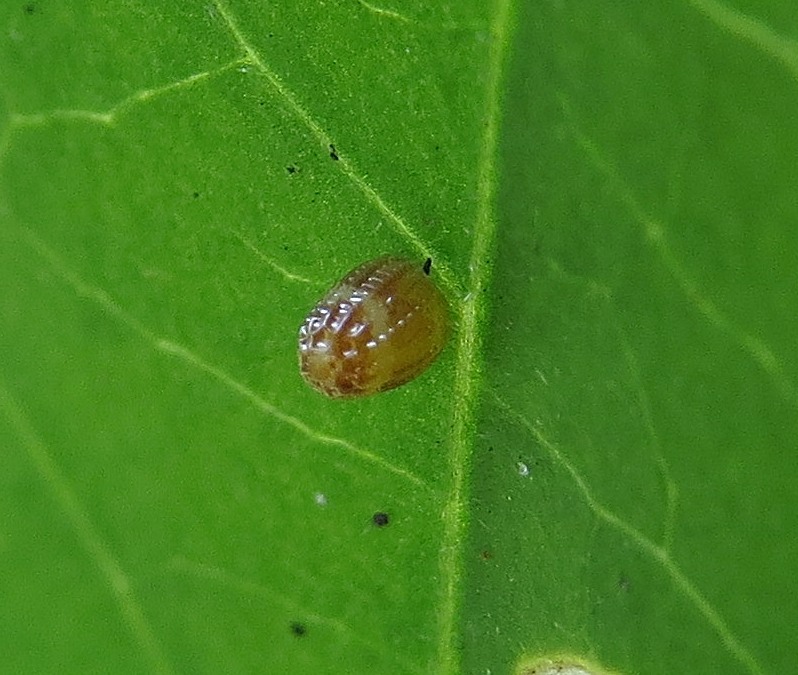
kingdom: Animalia
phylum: Arthropoda
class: Insecta
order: Lepidoptera
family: Nymphalidae
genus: Dione
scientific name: Dione vanillae
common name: Gulf fritillary
